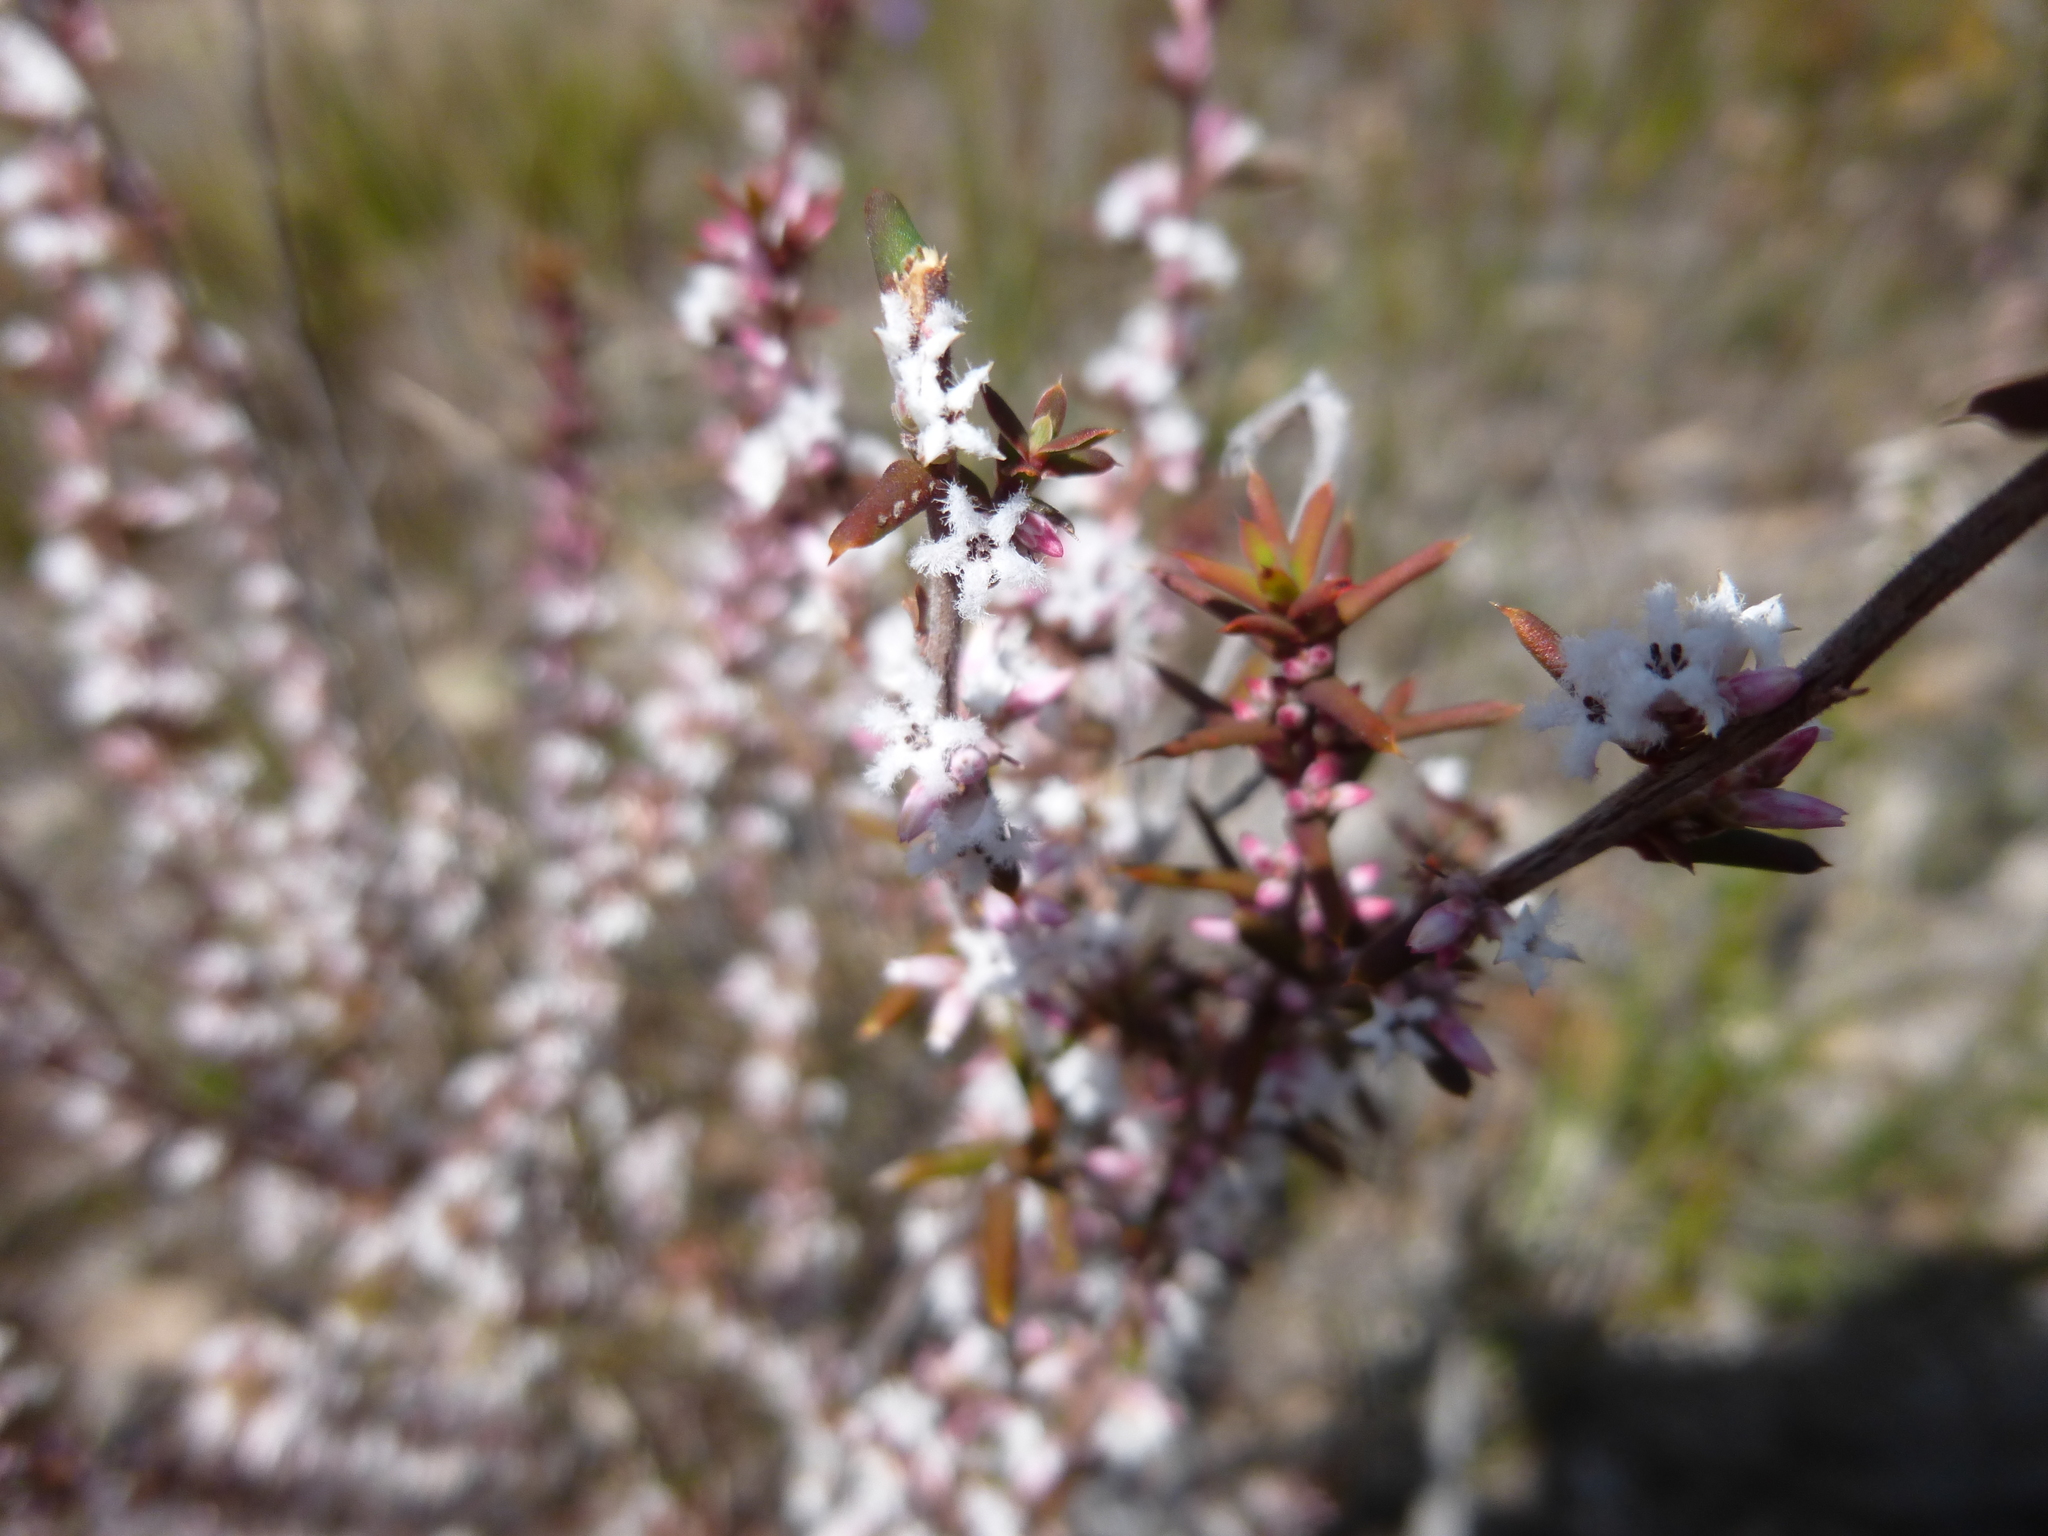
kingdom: Plantae
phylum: Tracheophyta
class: Magnoliopsida
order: Ericales
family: Ericaceae
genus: Styphelia
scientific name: Styphelia ericoides
